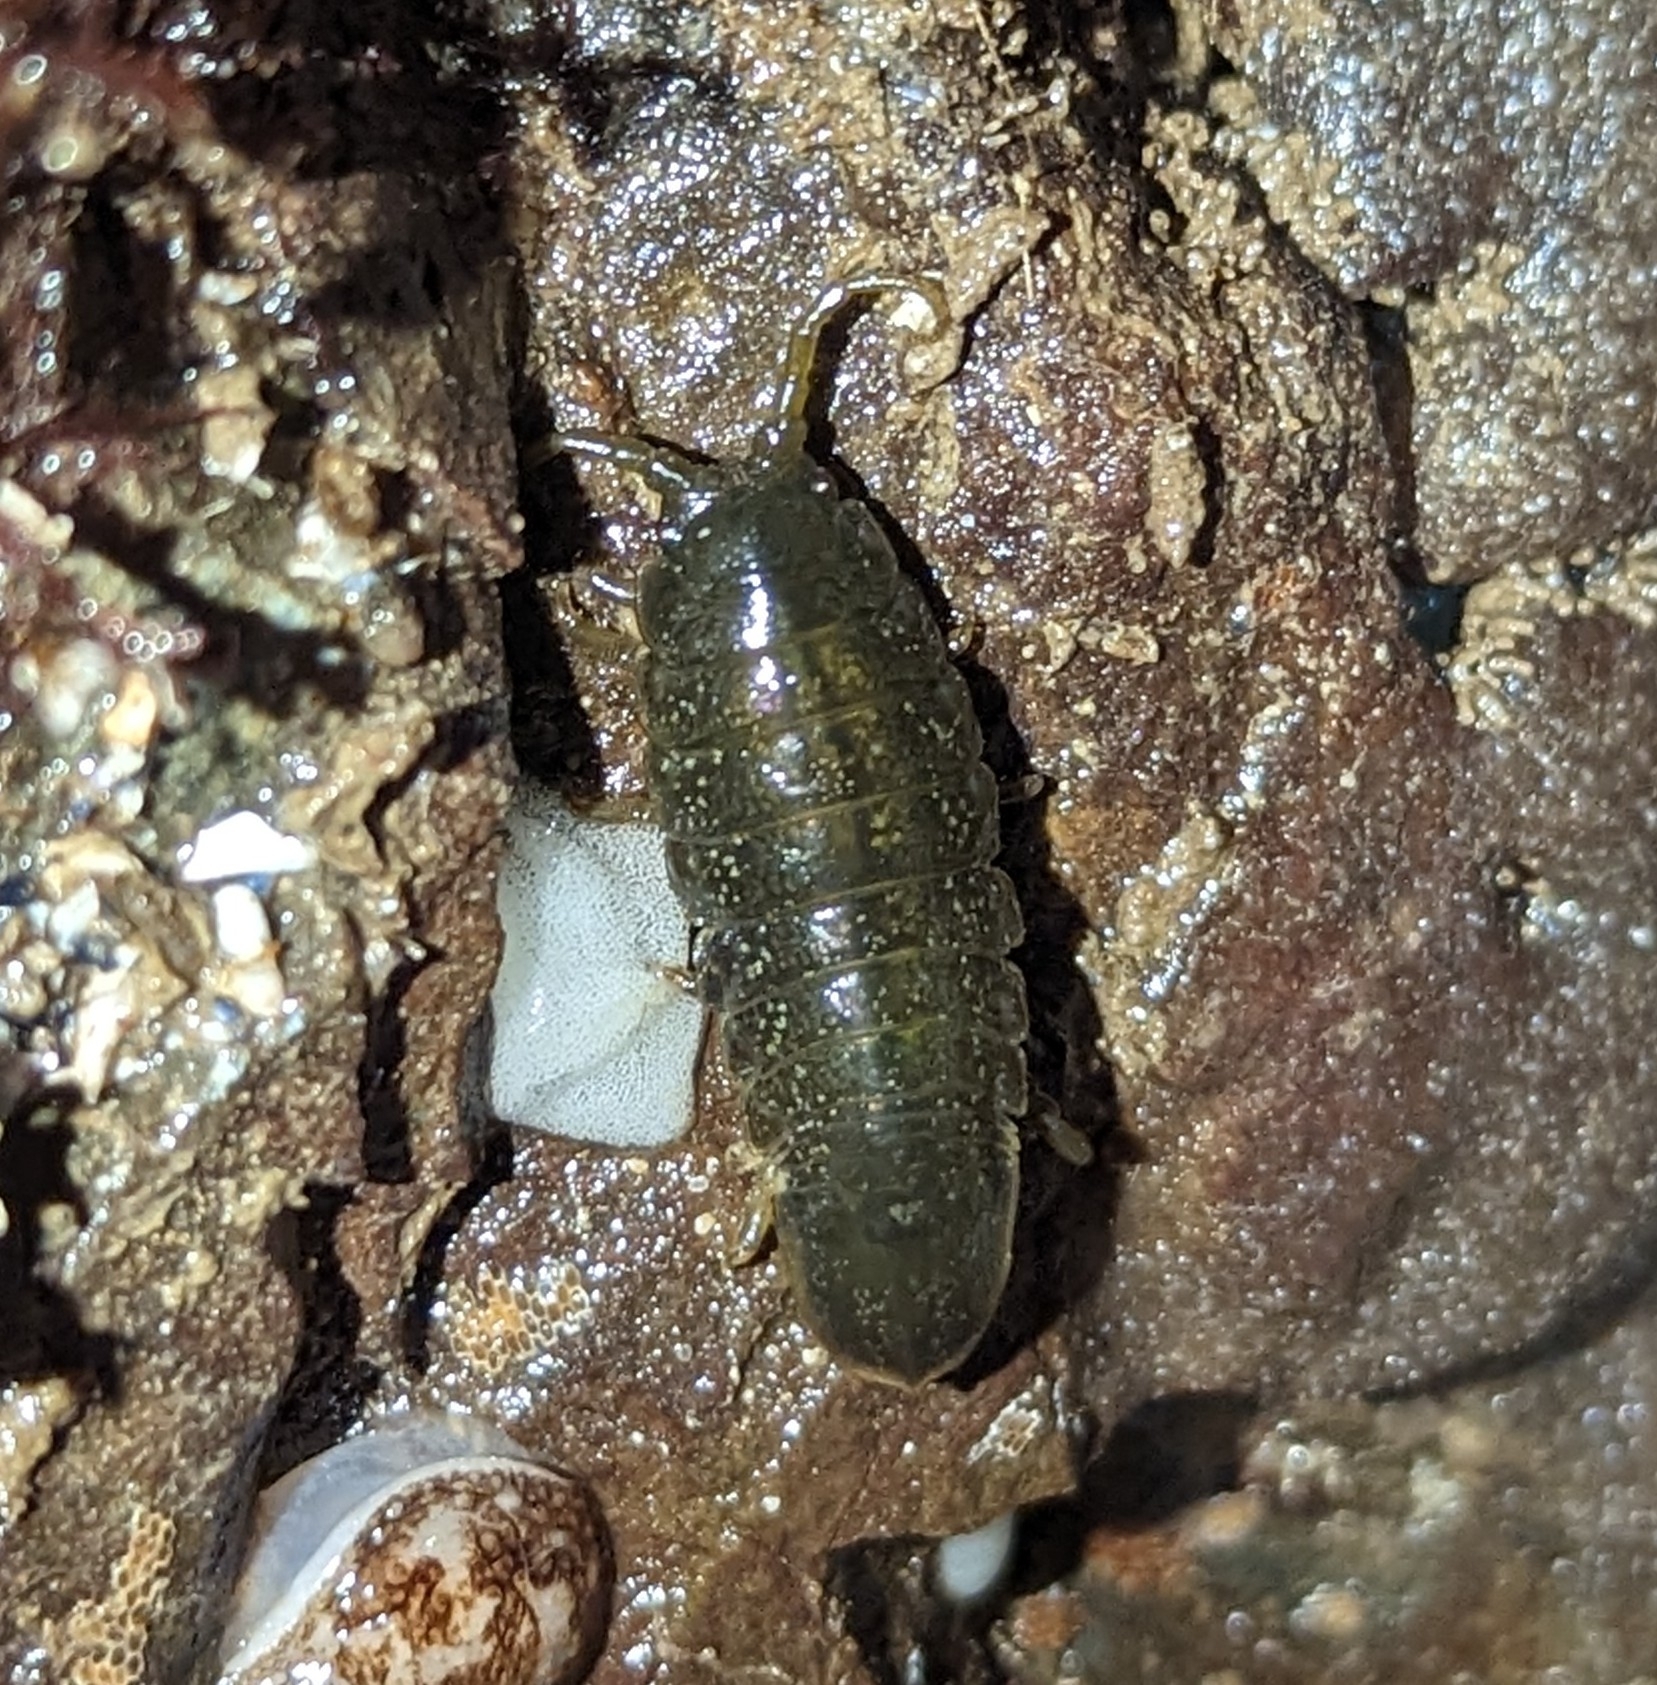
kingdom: Animalia
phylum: Arthropoda
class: Malacostraca
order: Isopoda
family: Idoteidae
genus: Pentidotea
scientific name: Pentidotea wosnesenskii
